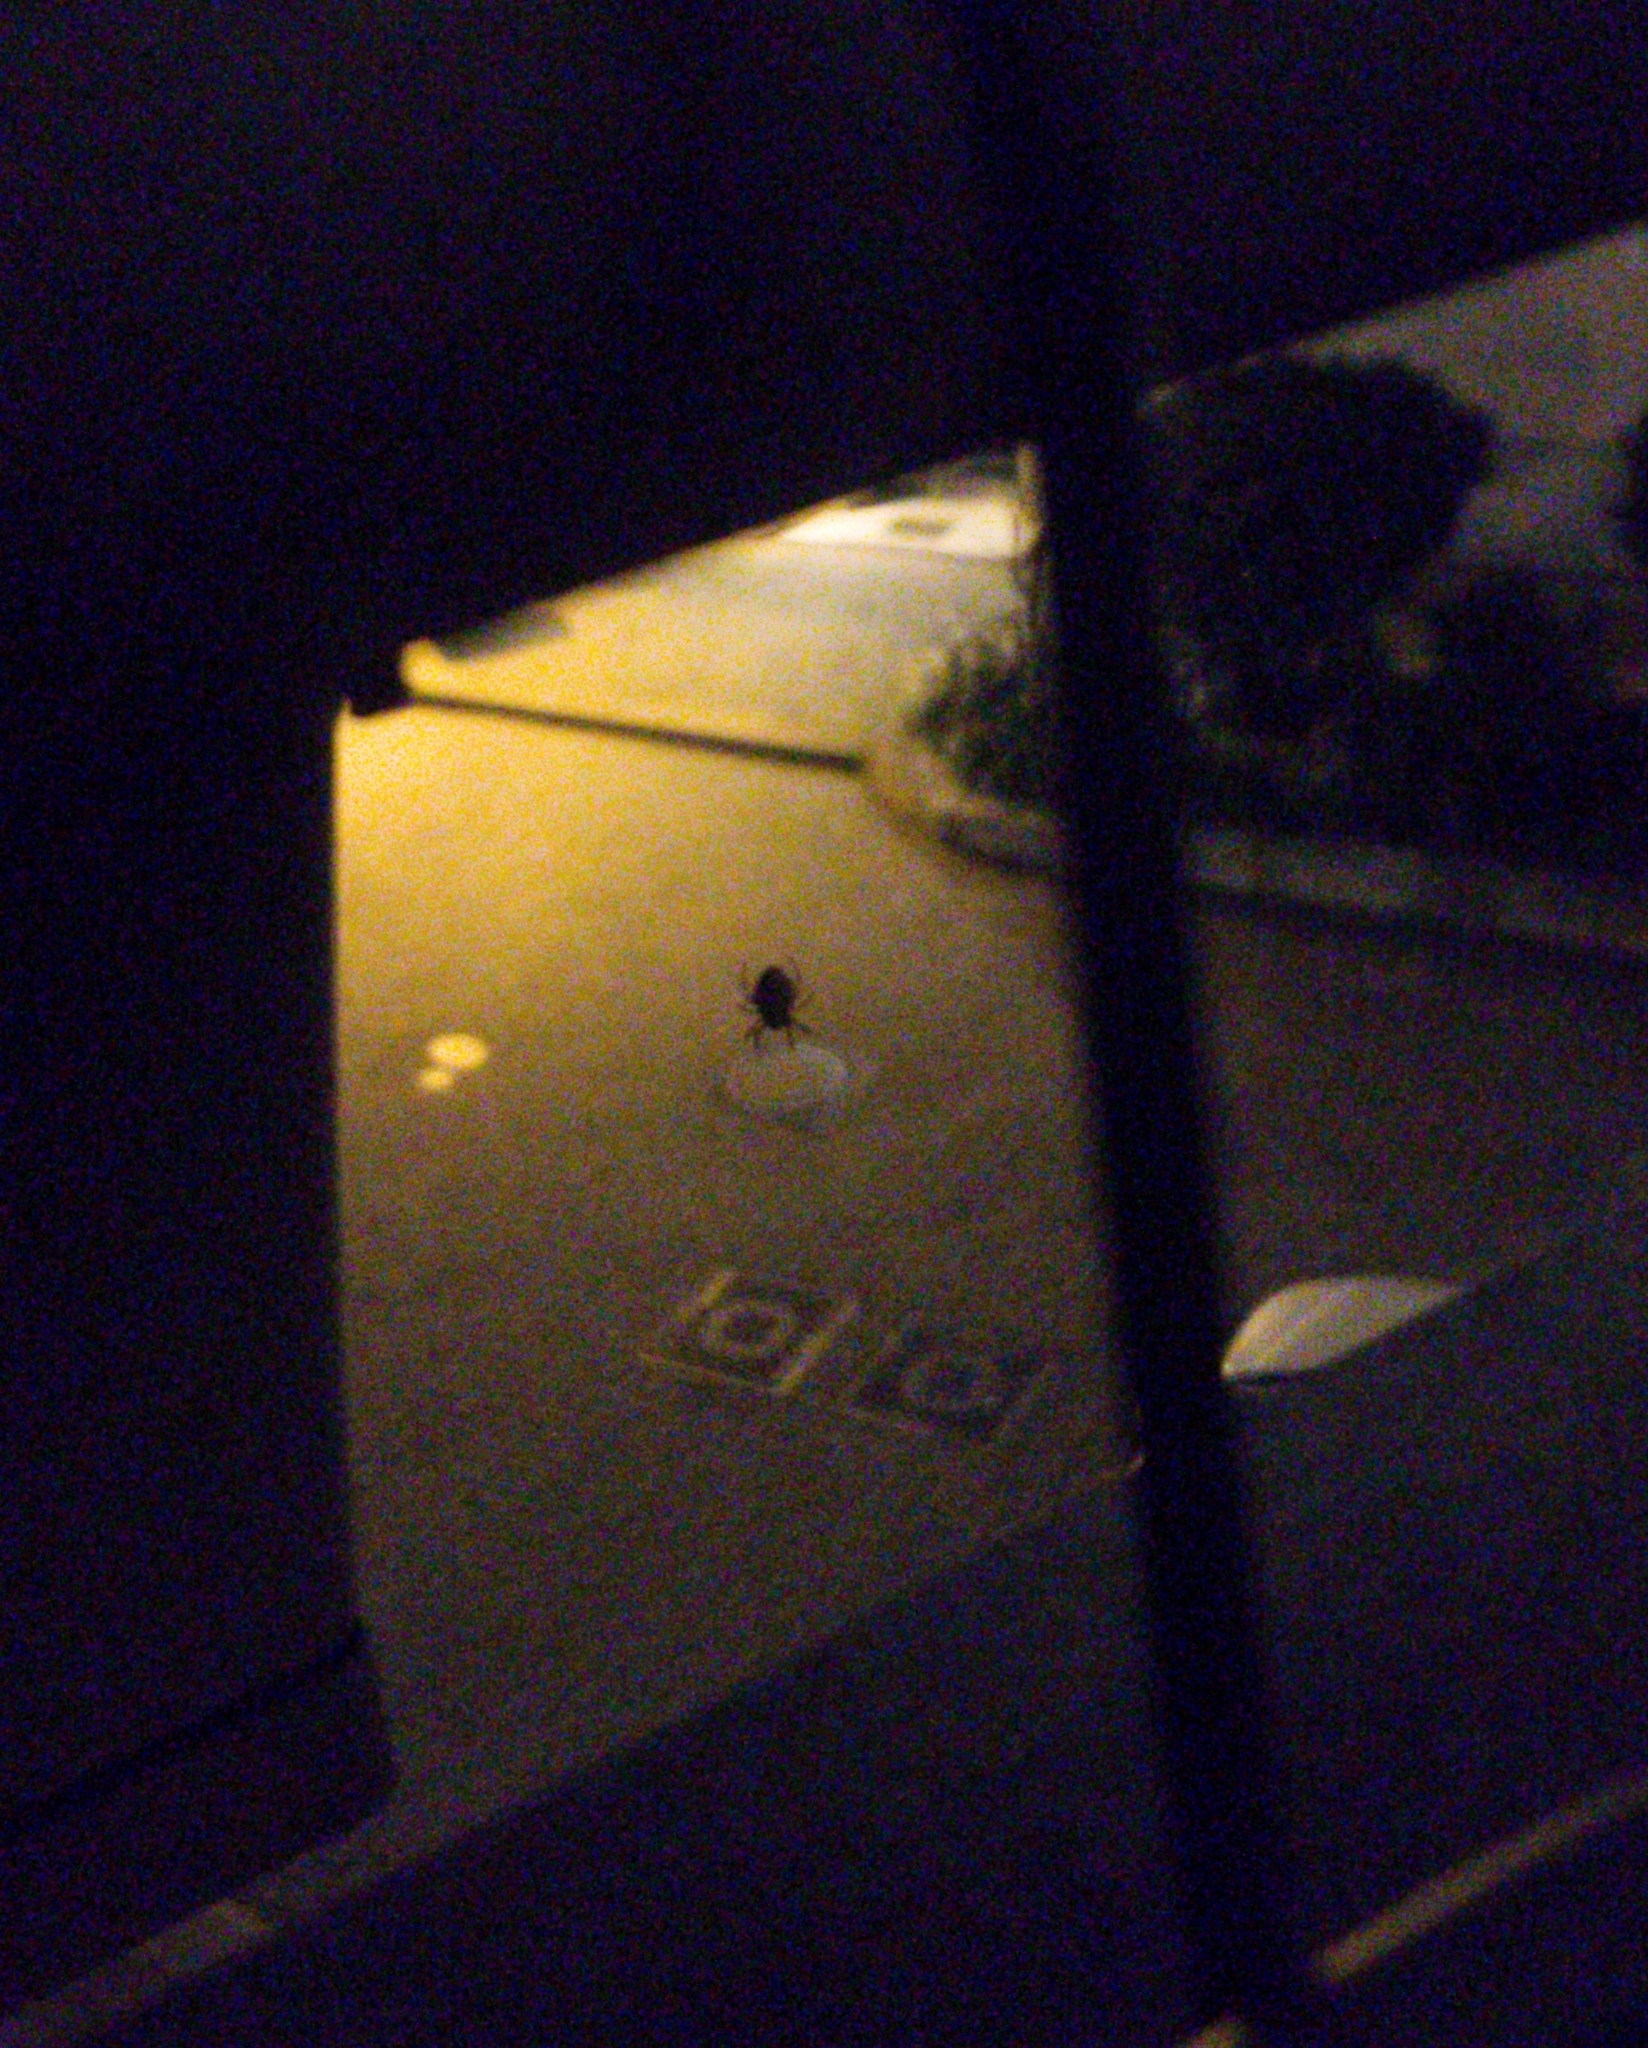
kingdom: Animalia
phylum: Arthropoda
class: Arachnida
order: Araneae
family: Araneidae
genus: Nuctenea
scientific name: Nuctenea umbratica
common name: Toad spider
